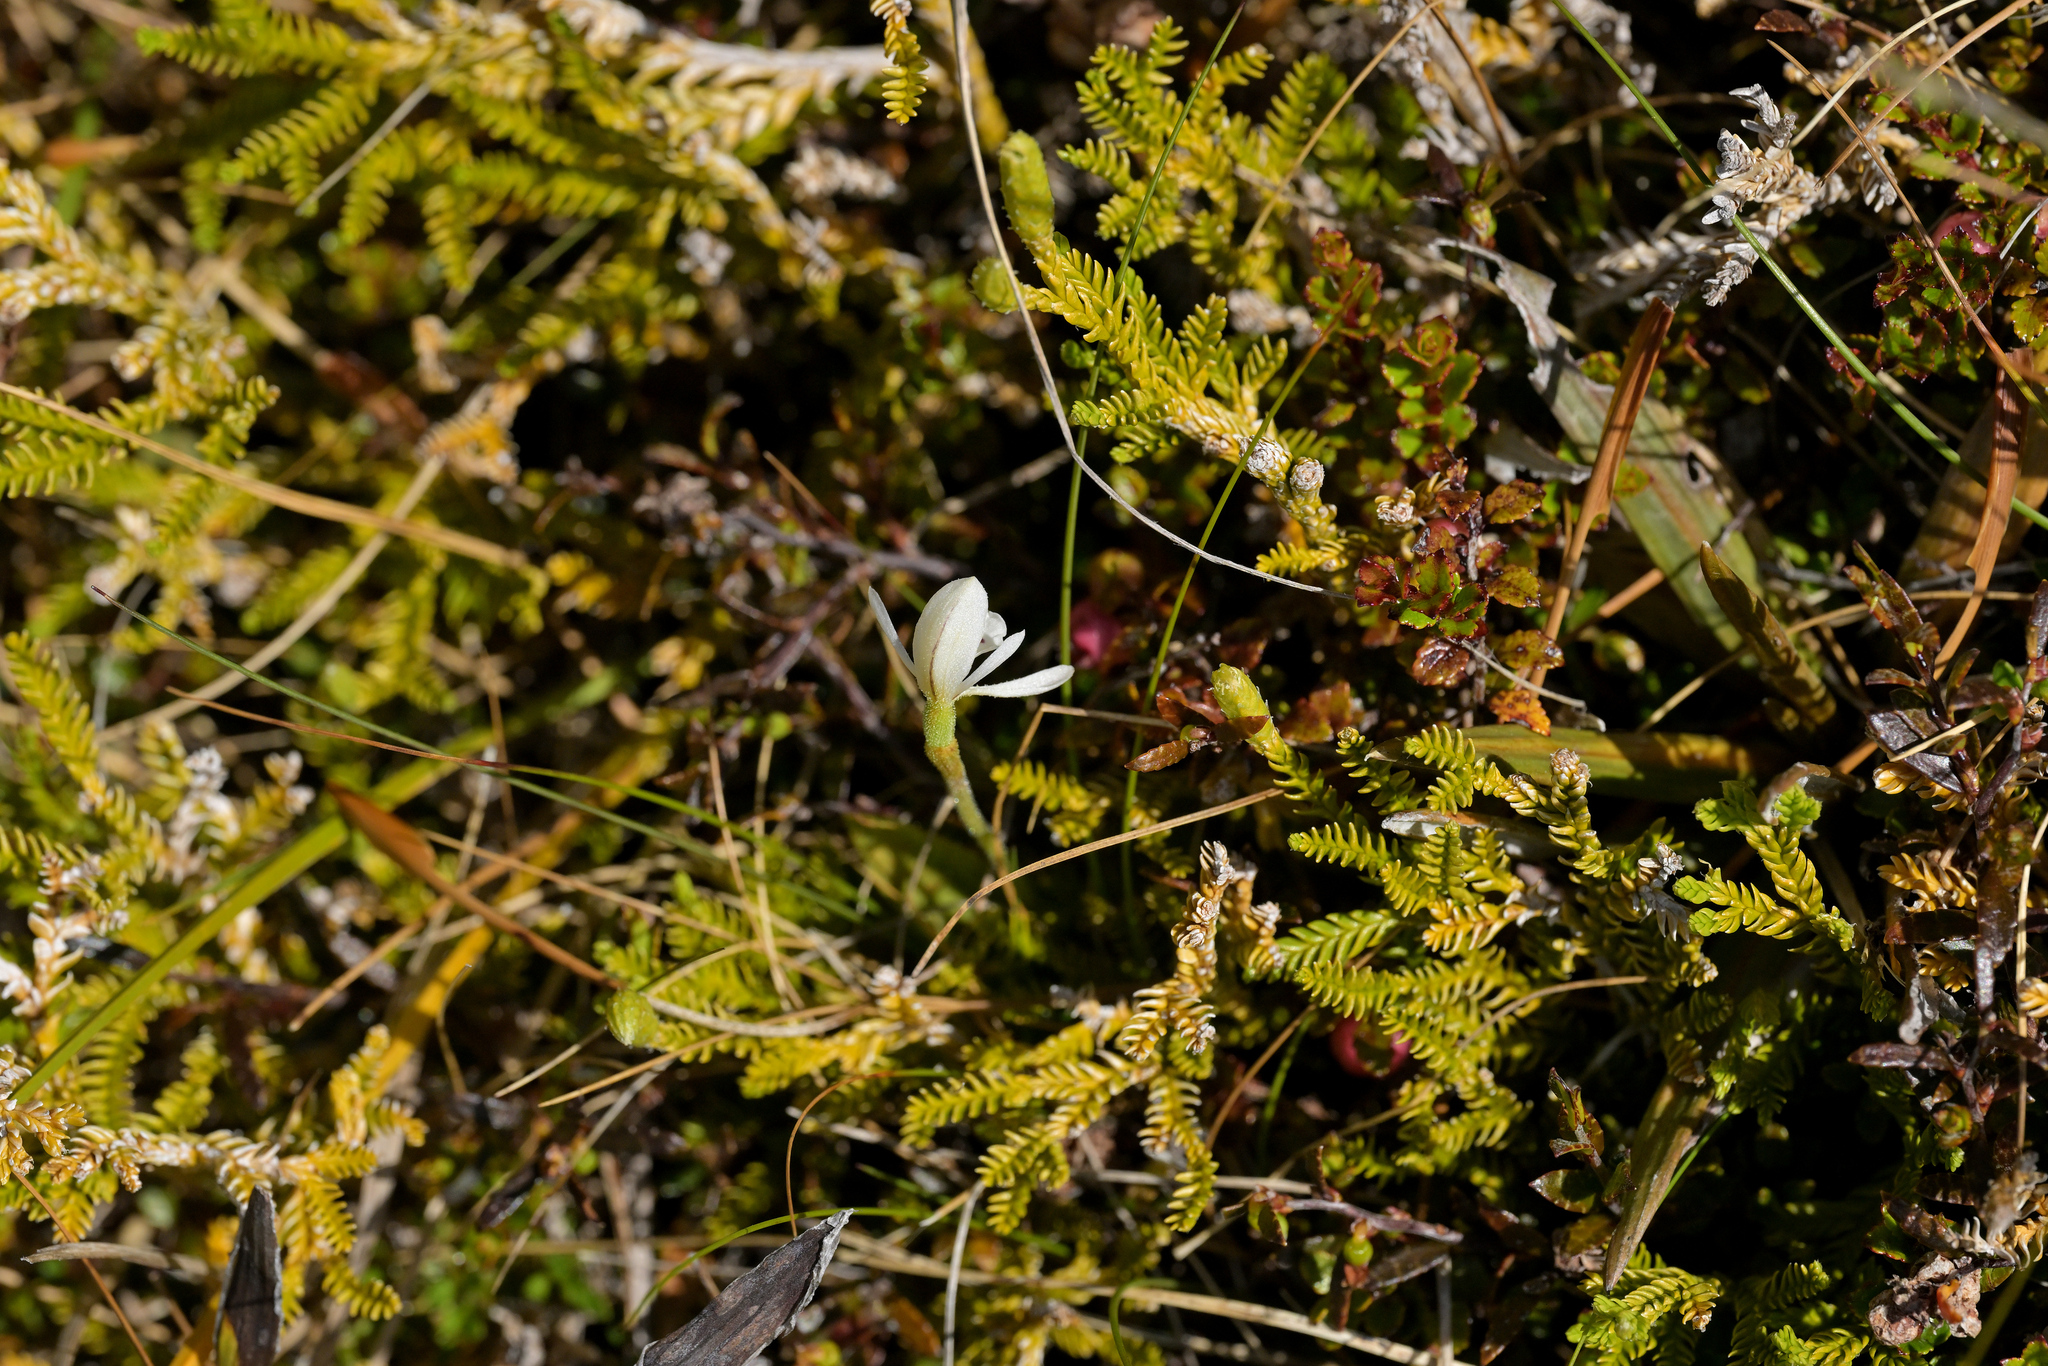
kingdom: Plantae
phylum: Tracheophyta
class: Liliopsida
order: Asparagales
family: Orchidaceae
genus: Aporostylis
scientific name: Aporostylis bifolia
